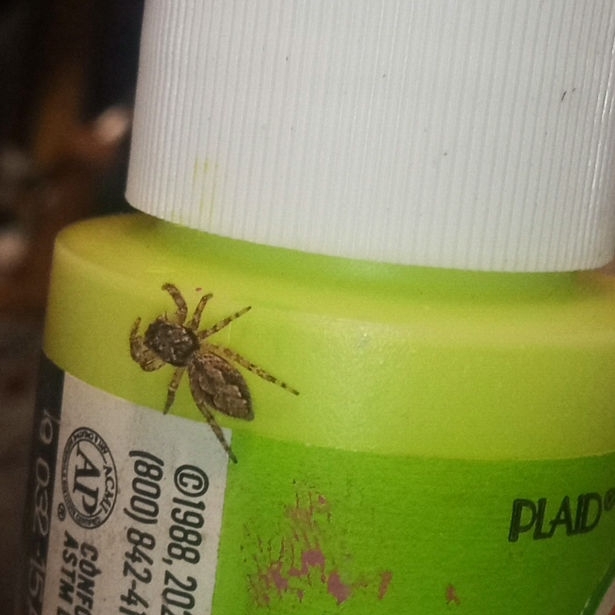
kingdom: Animalia
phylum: Arthropoda
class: Arachnida
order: Araneae
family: Salticidae
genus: Platycryptus
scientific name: Platycryptus undatus
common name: Tan jumping spider
